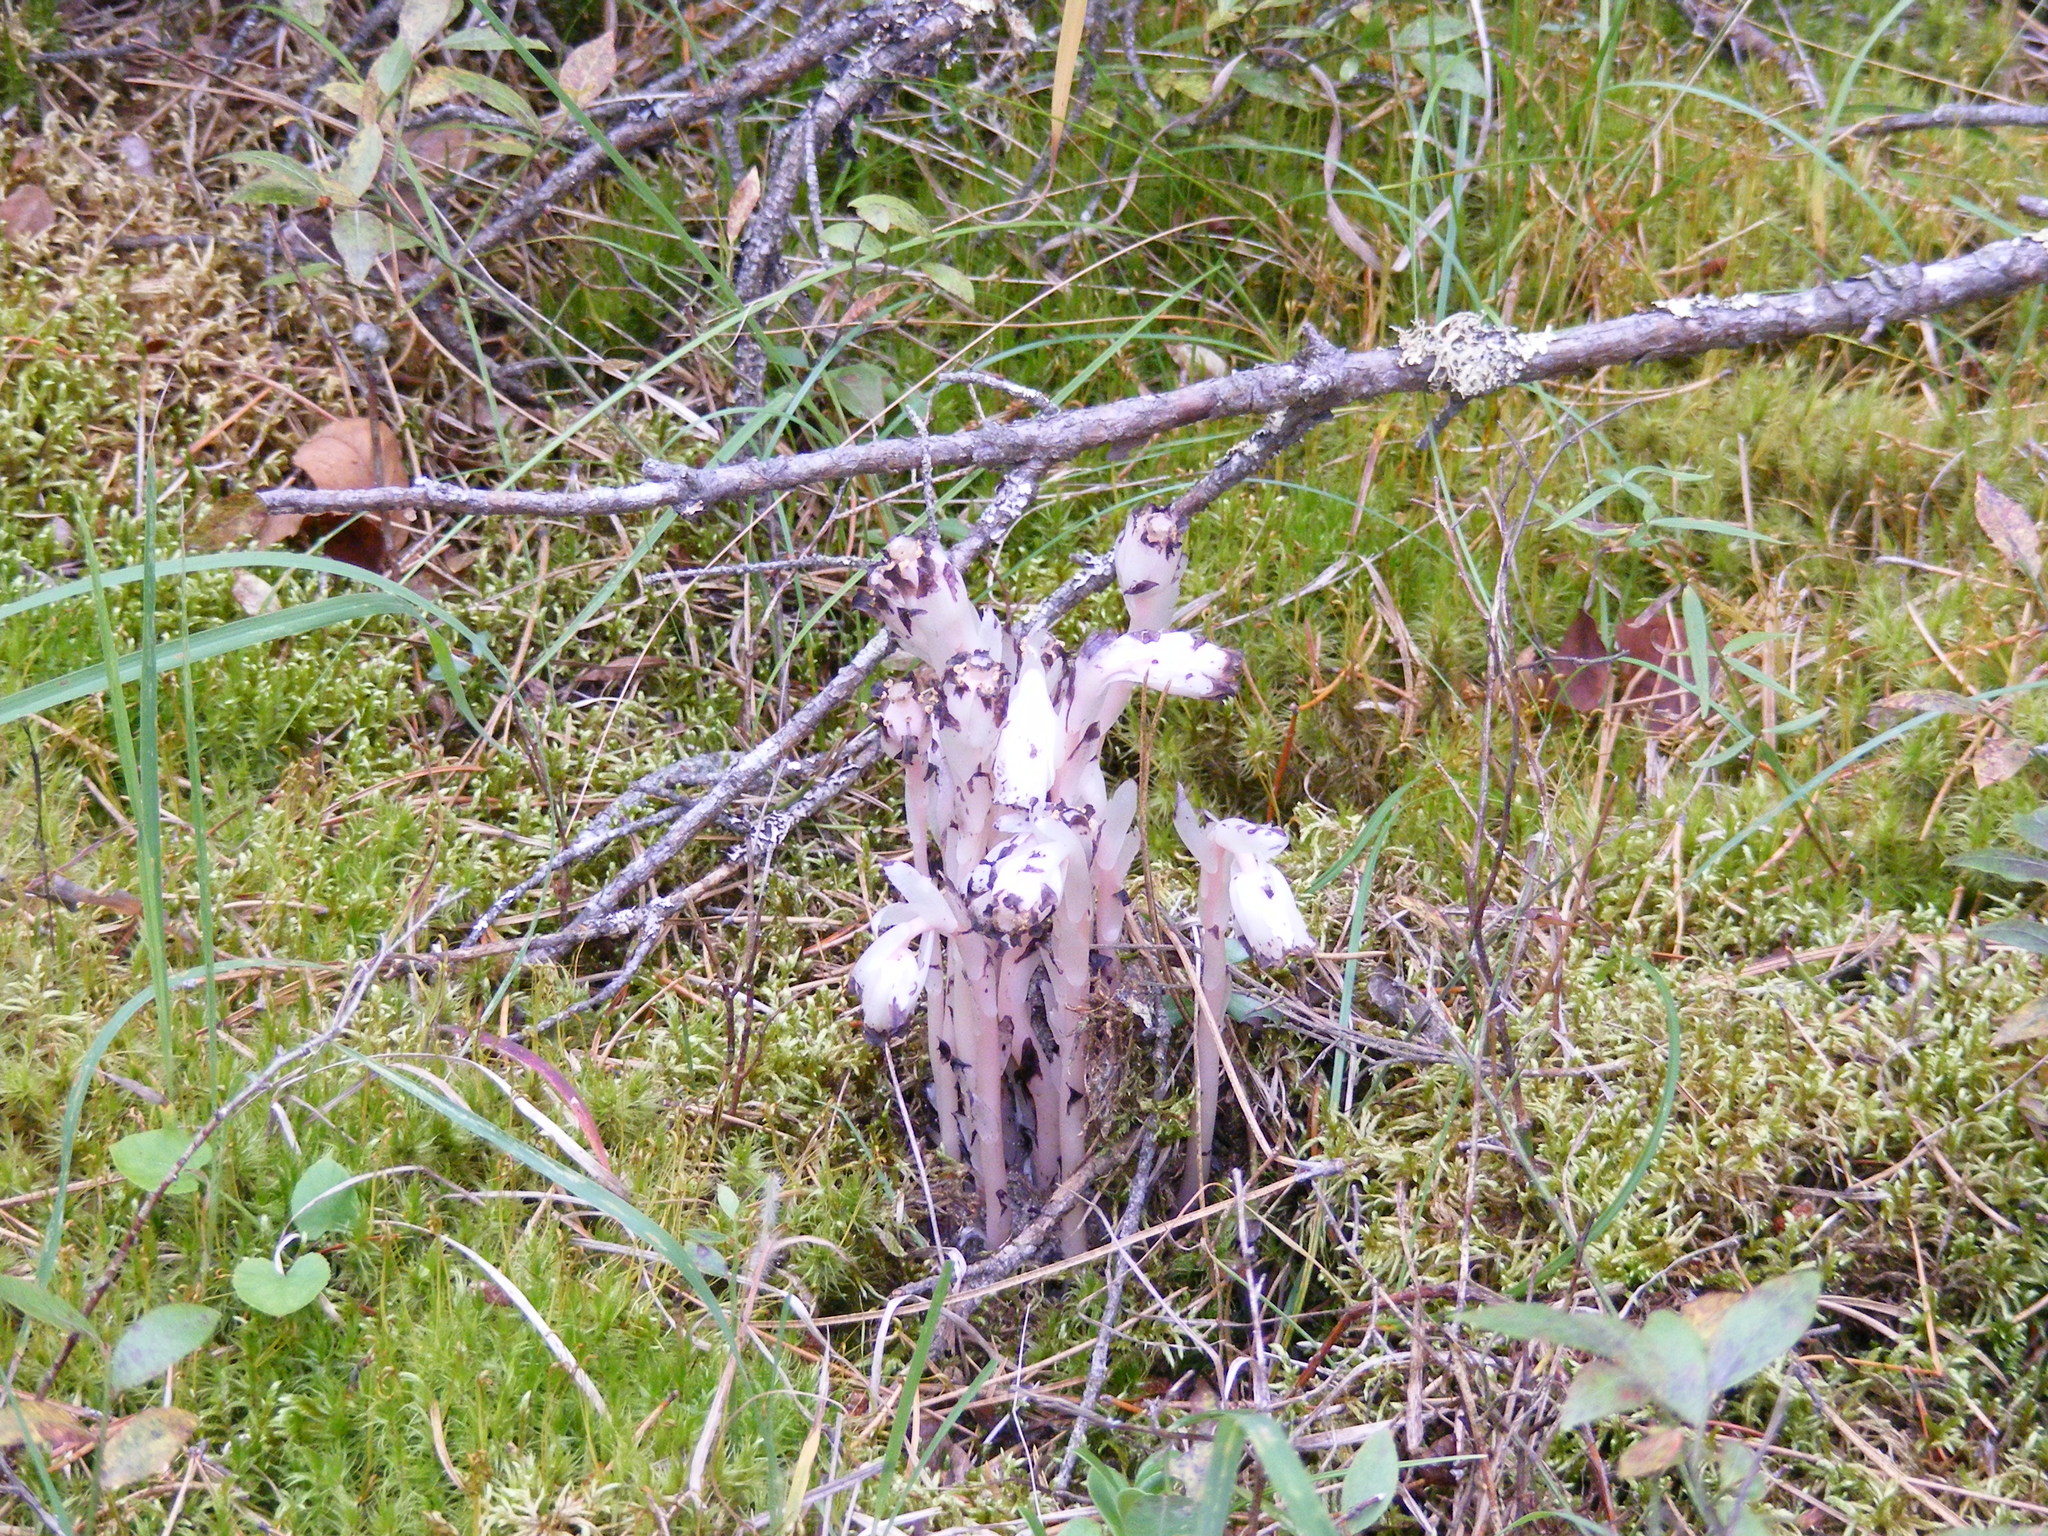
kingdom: Plantae
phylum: Tracheophyta
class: Magnoliopsida
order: Ericales
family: Ericaceae
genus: Monotropa
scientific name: Monotropa uniflora
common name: Convulsion root
